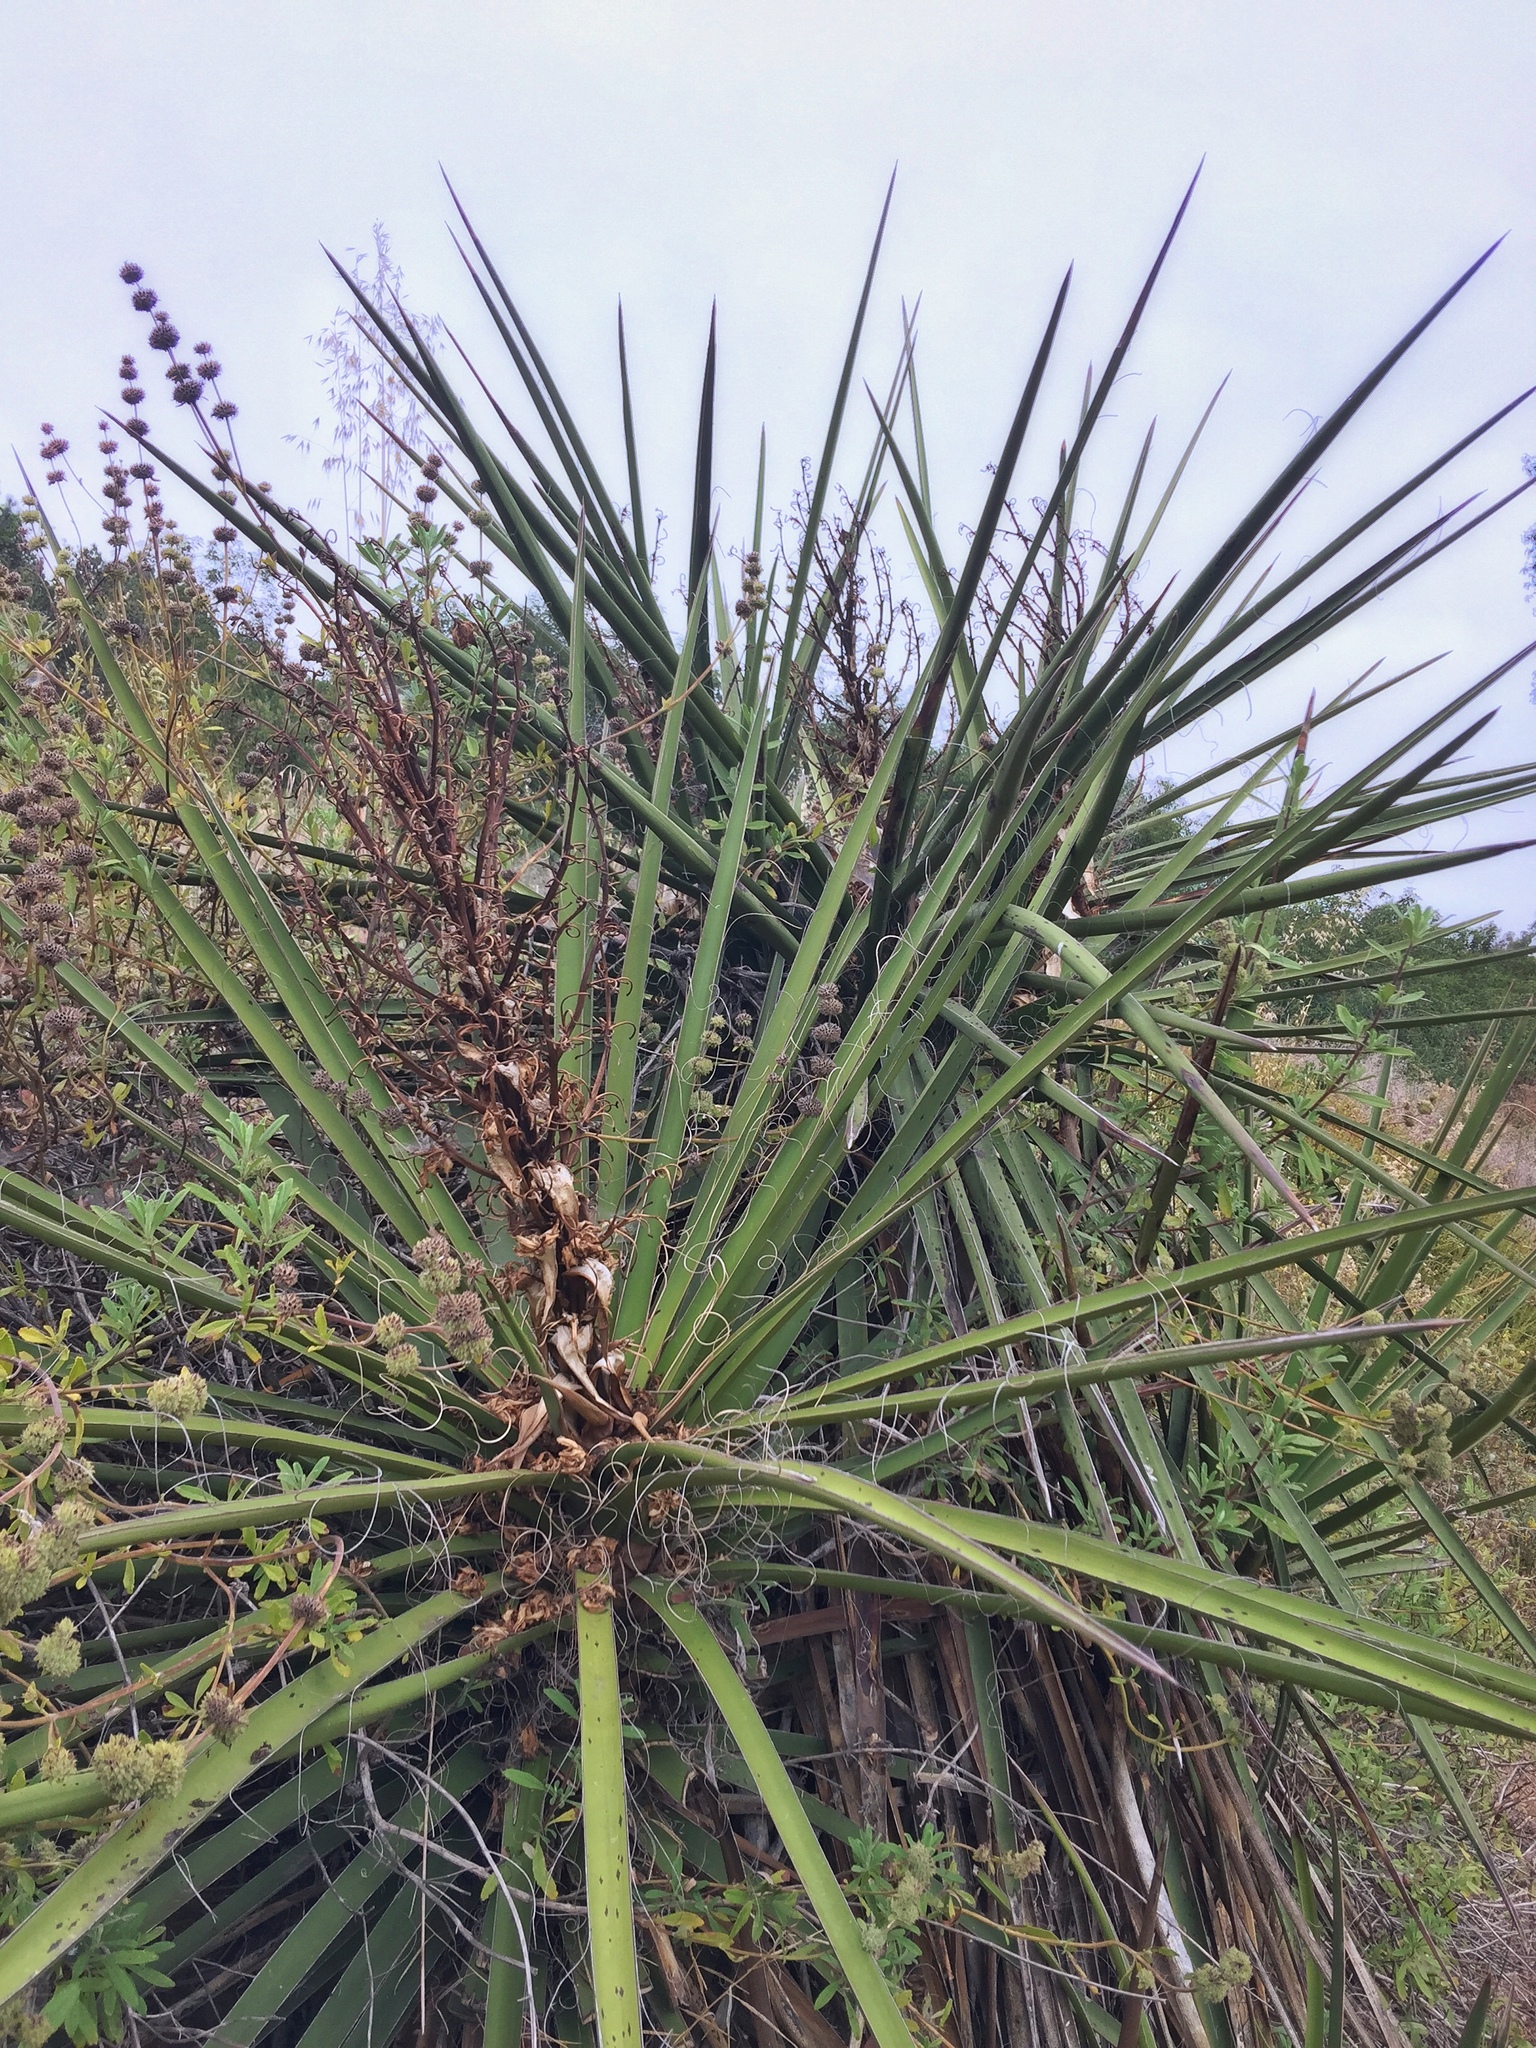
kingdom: Plantae
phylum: Tracheophyta
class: Liliopsida
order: Asparagales
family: Asparagaceae
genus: Yucca
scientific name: Yucca schidigera
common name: Mojave yucca
